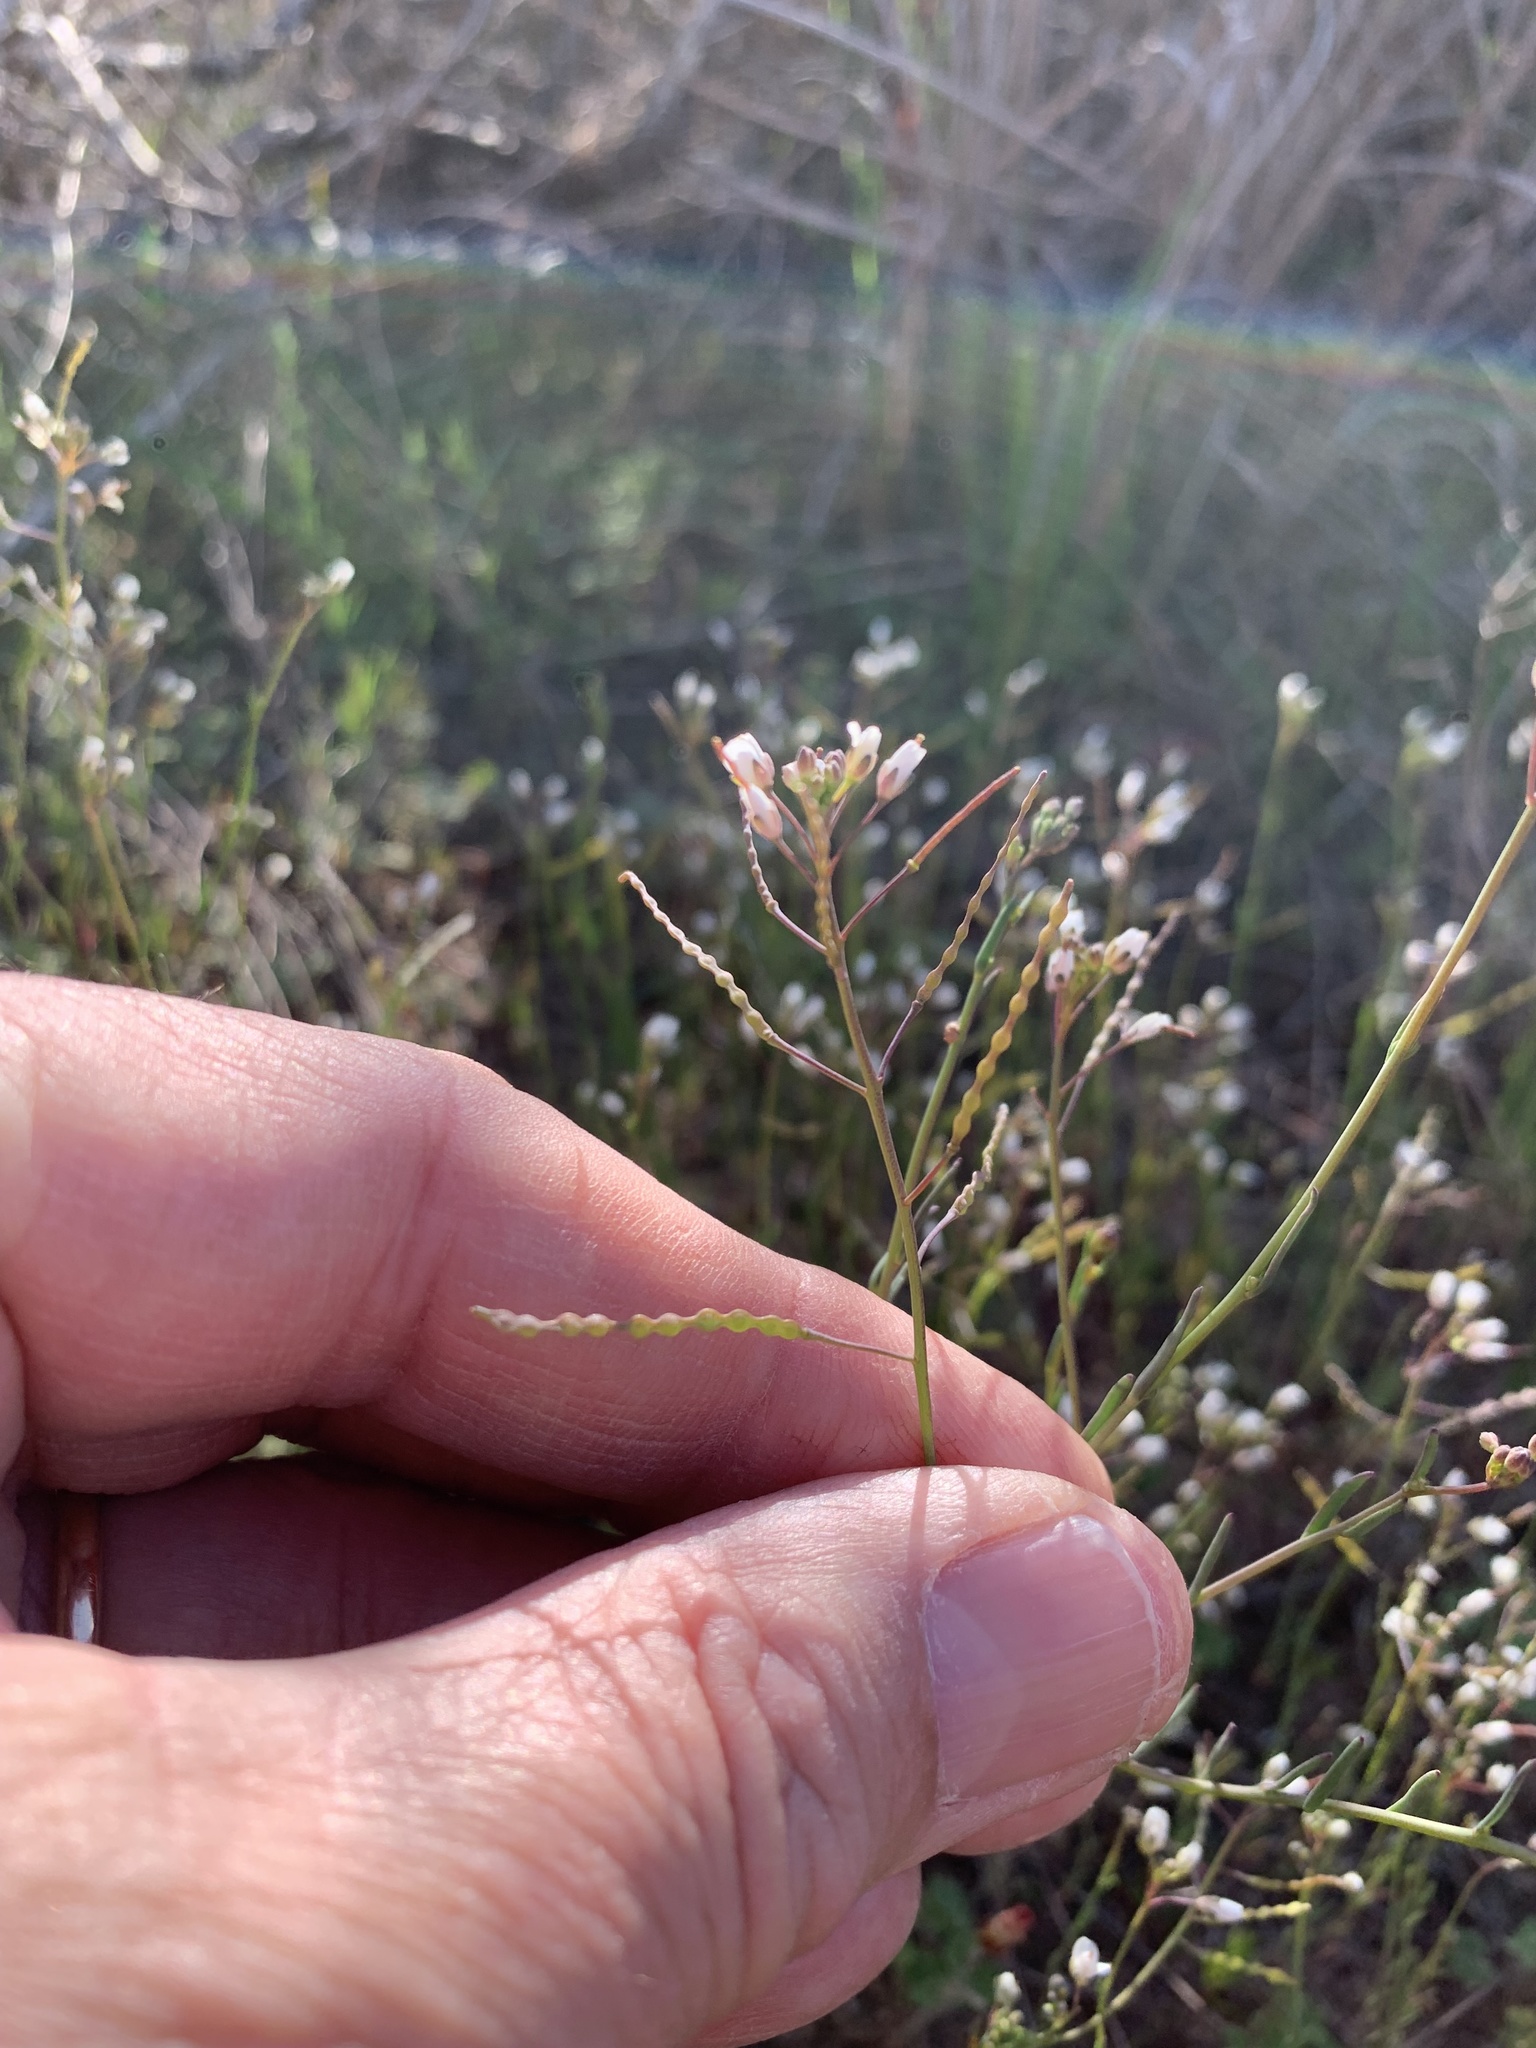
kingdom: Plantae
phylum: Tracheophyta
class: Magnoliopsida
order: Brassicales
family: Brassicaceae
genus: Heliophila
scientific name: Heliophila pusilla
